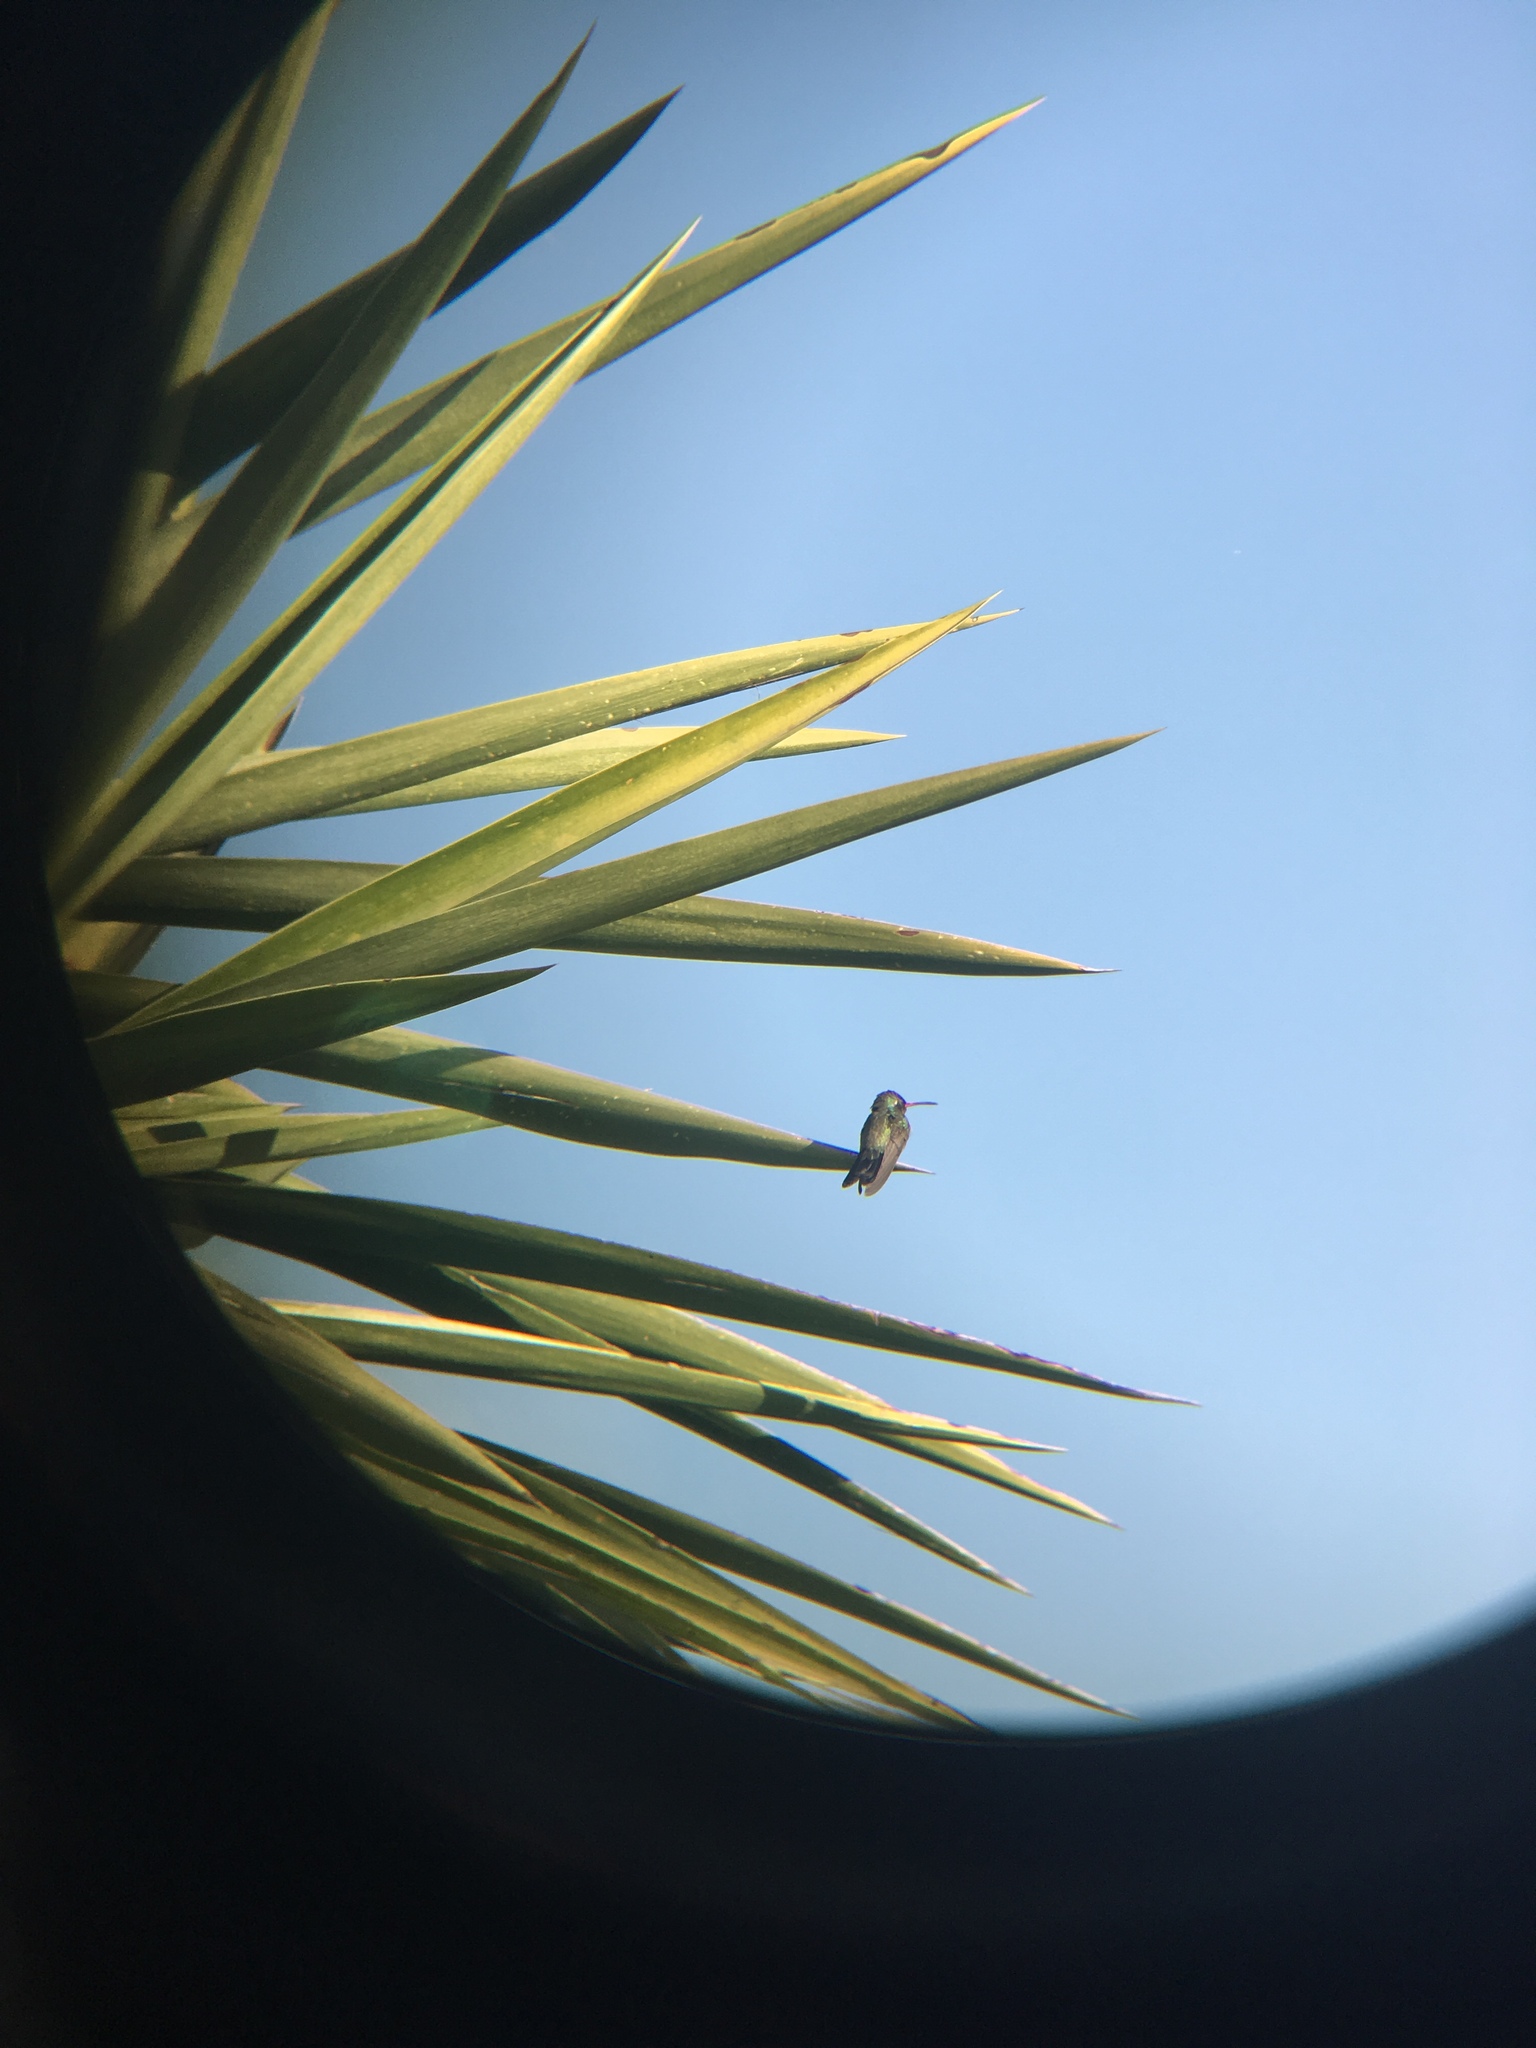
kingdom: Animalia
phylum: Chordata
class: Aves
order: Apodiformes
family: Trochilidae
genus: Cynanthus
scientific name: Cynanthus latirostris
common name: Broad-billed hummingbird
